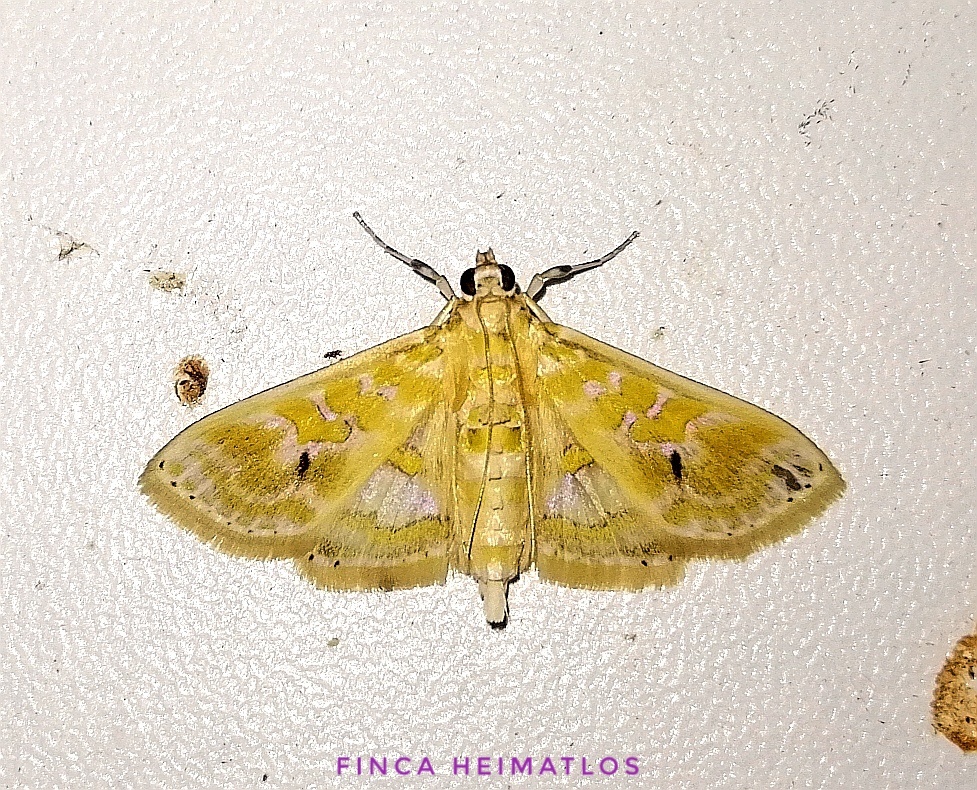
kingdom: Animalia
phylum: Arthropoda
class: Insecta
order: Lepidoptera
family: Crambidae
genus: Leucochroma
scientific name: Leucochroma corope
